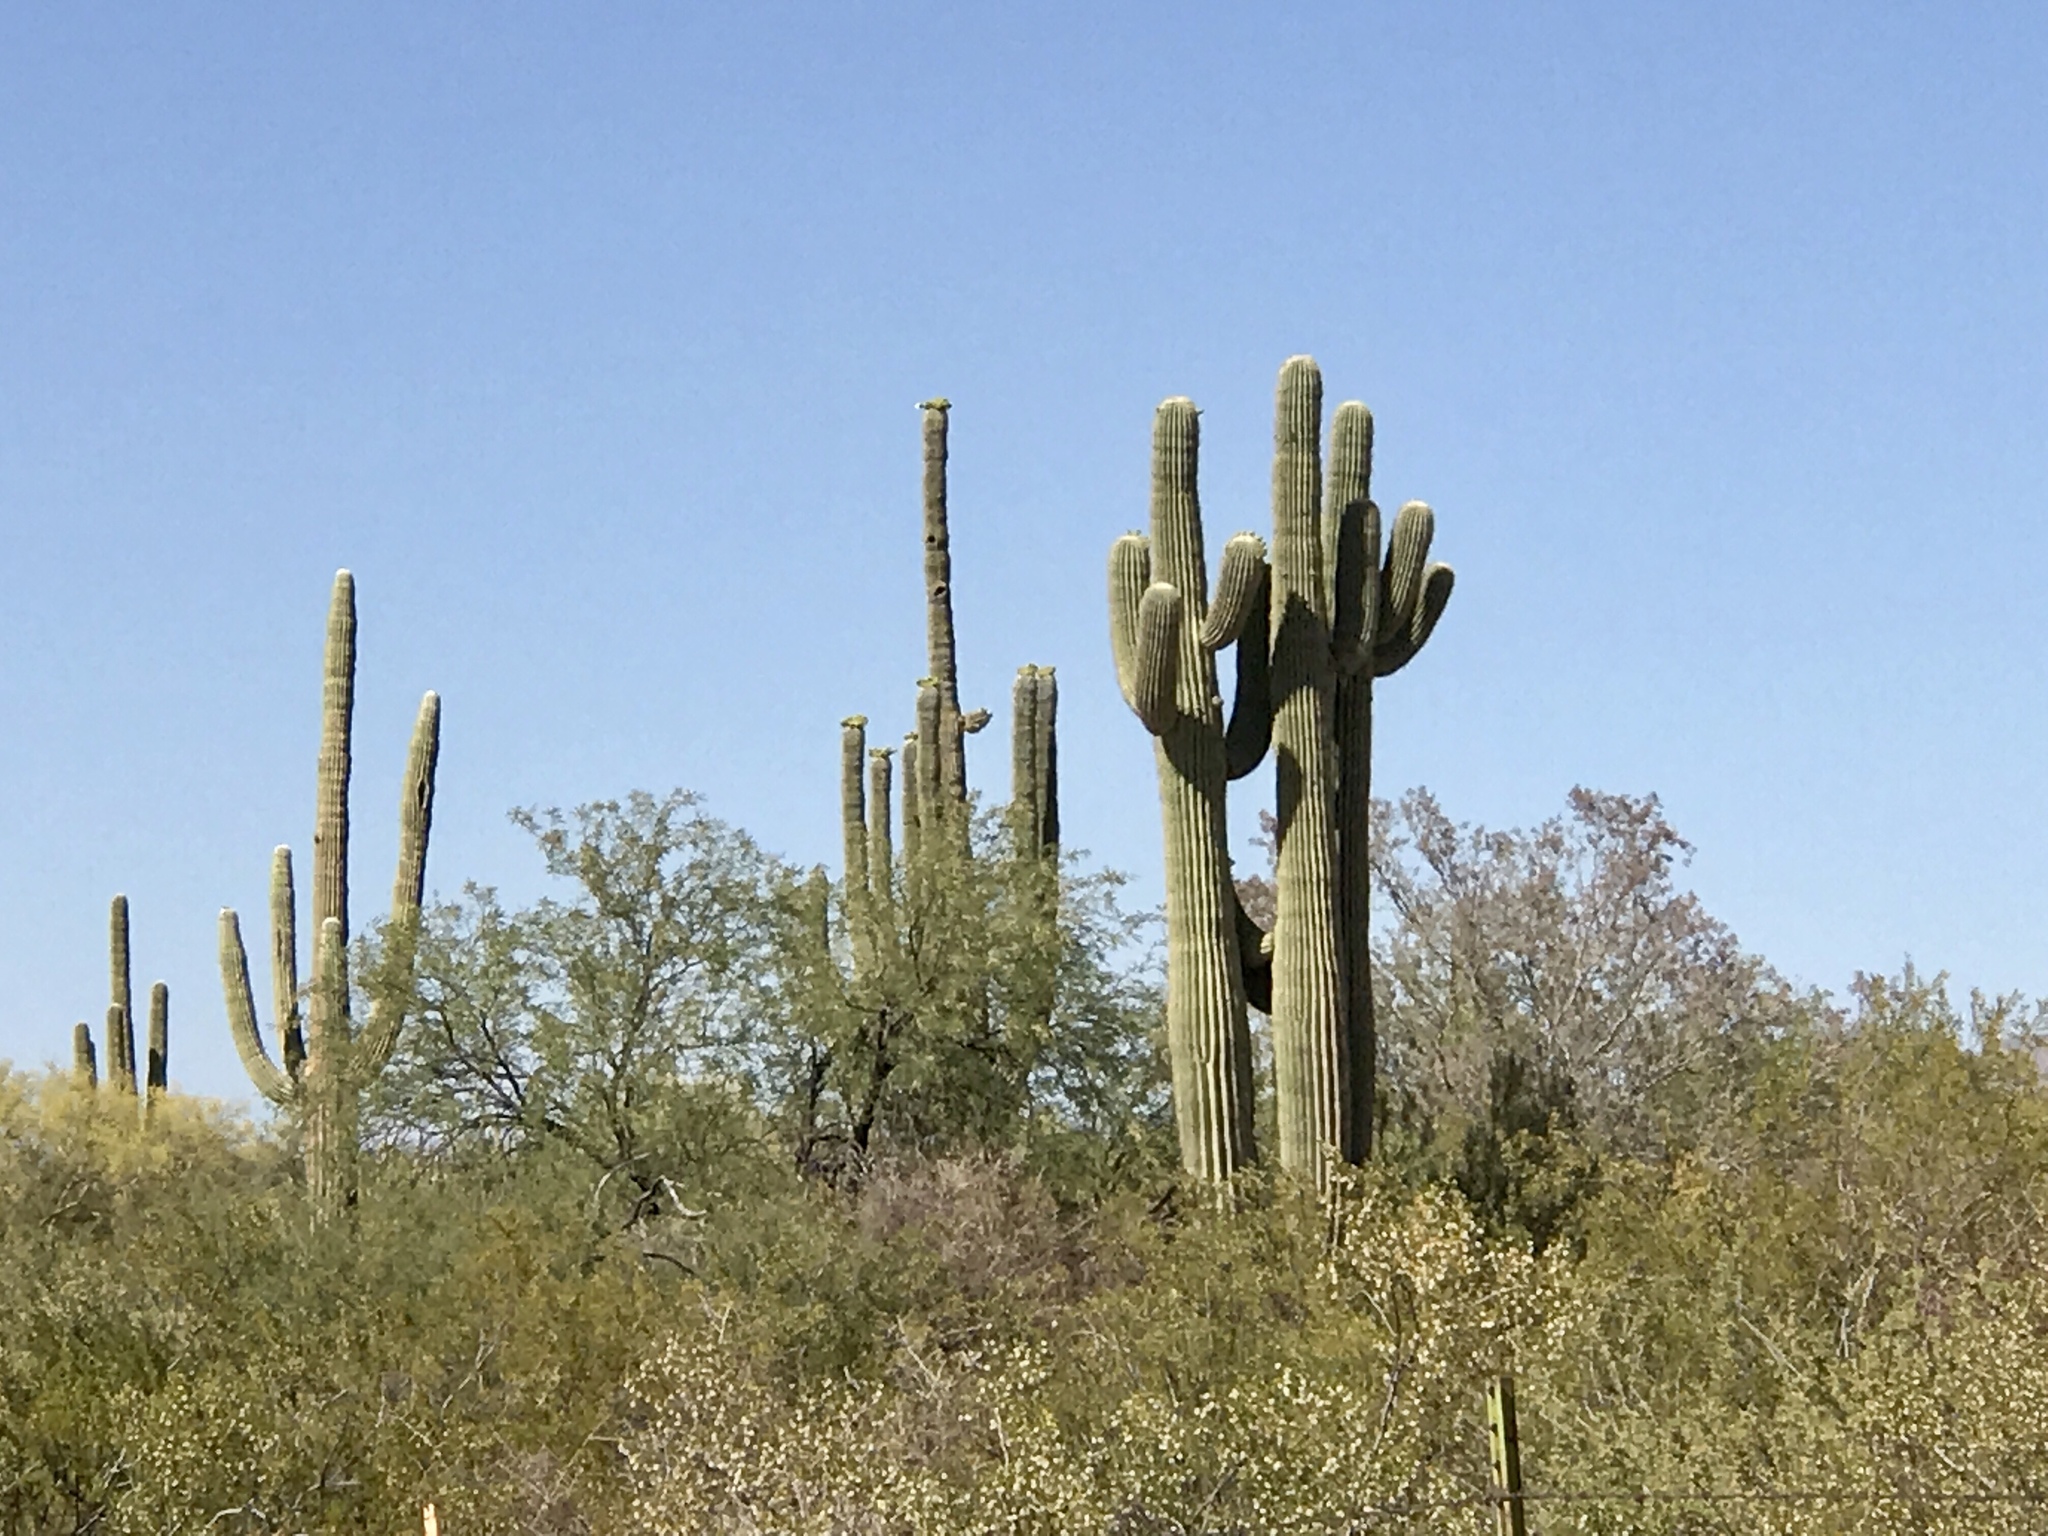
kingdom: Plantae
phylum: Tracheophyta
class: Magnoliopsida
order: Caryophyllales
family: Cactaceae
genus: Carnegiea
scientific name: Carnegiea gigantea
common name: Saguaro
